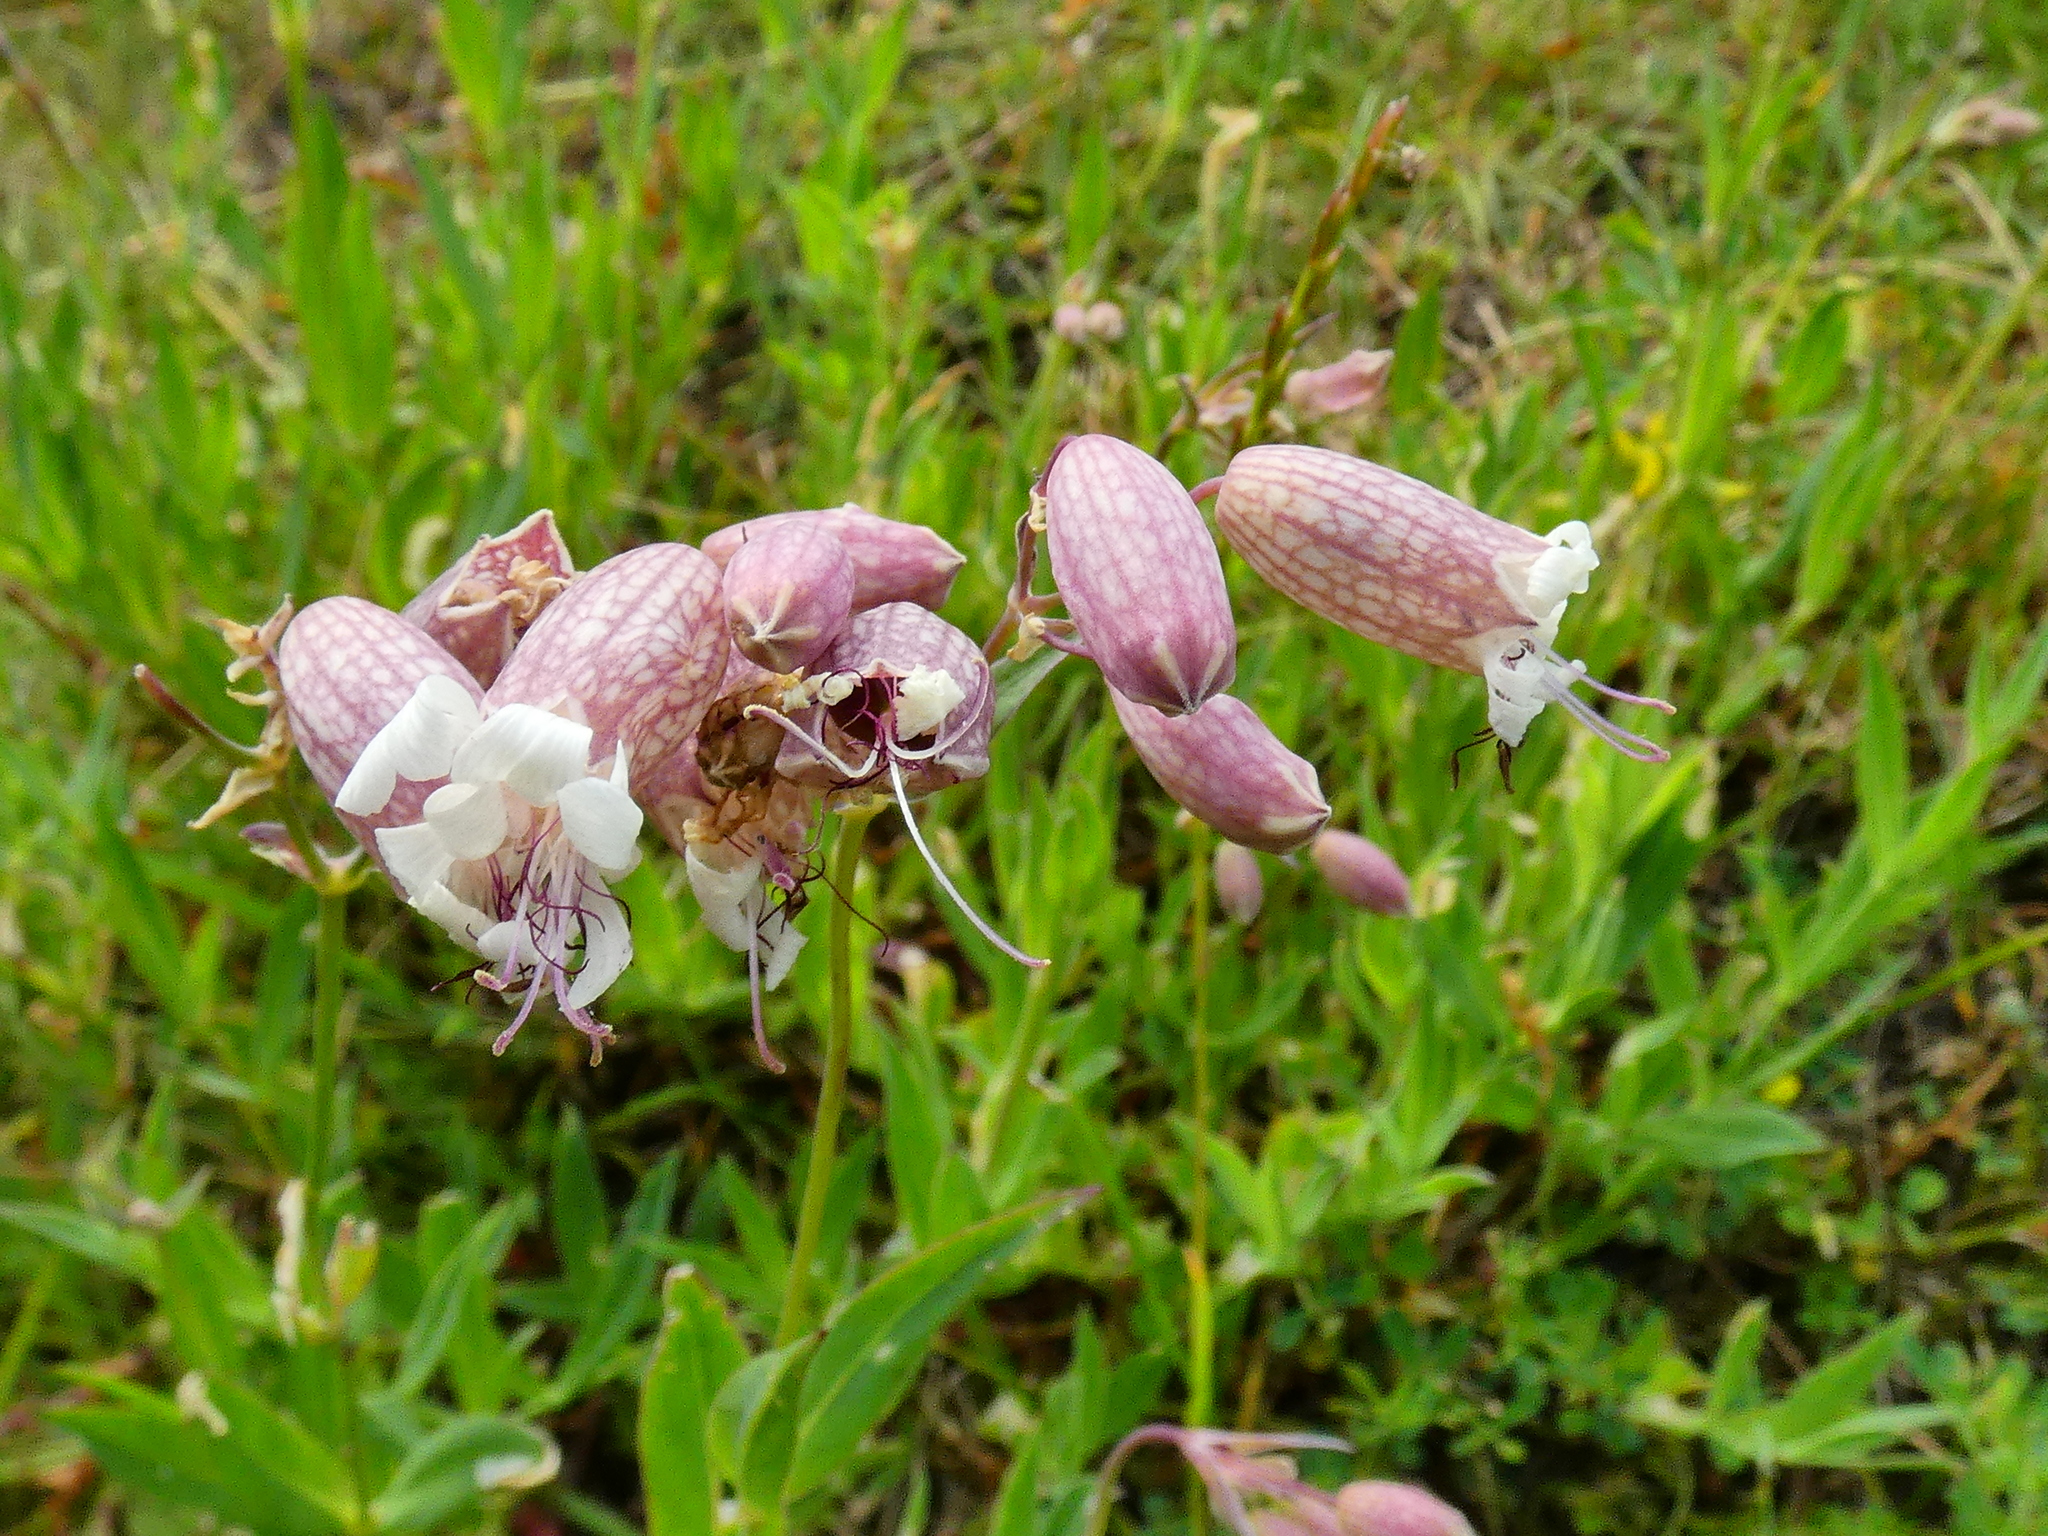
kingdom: Plantae
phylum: Tracheophyta
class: Magnoliopsida
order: Caryophyllales
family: Caryophyllaceae
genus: Silene
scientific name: Silene vulgaris
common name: Bladder campion
